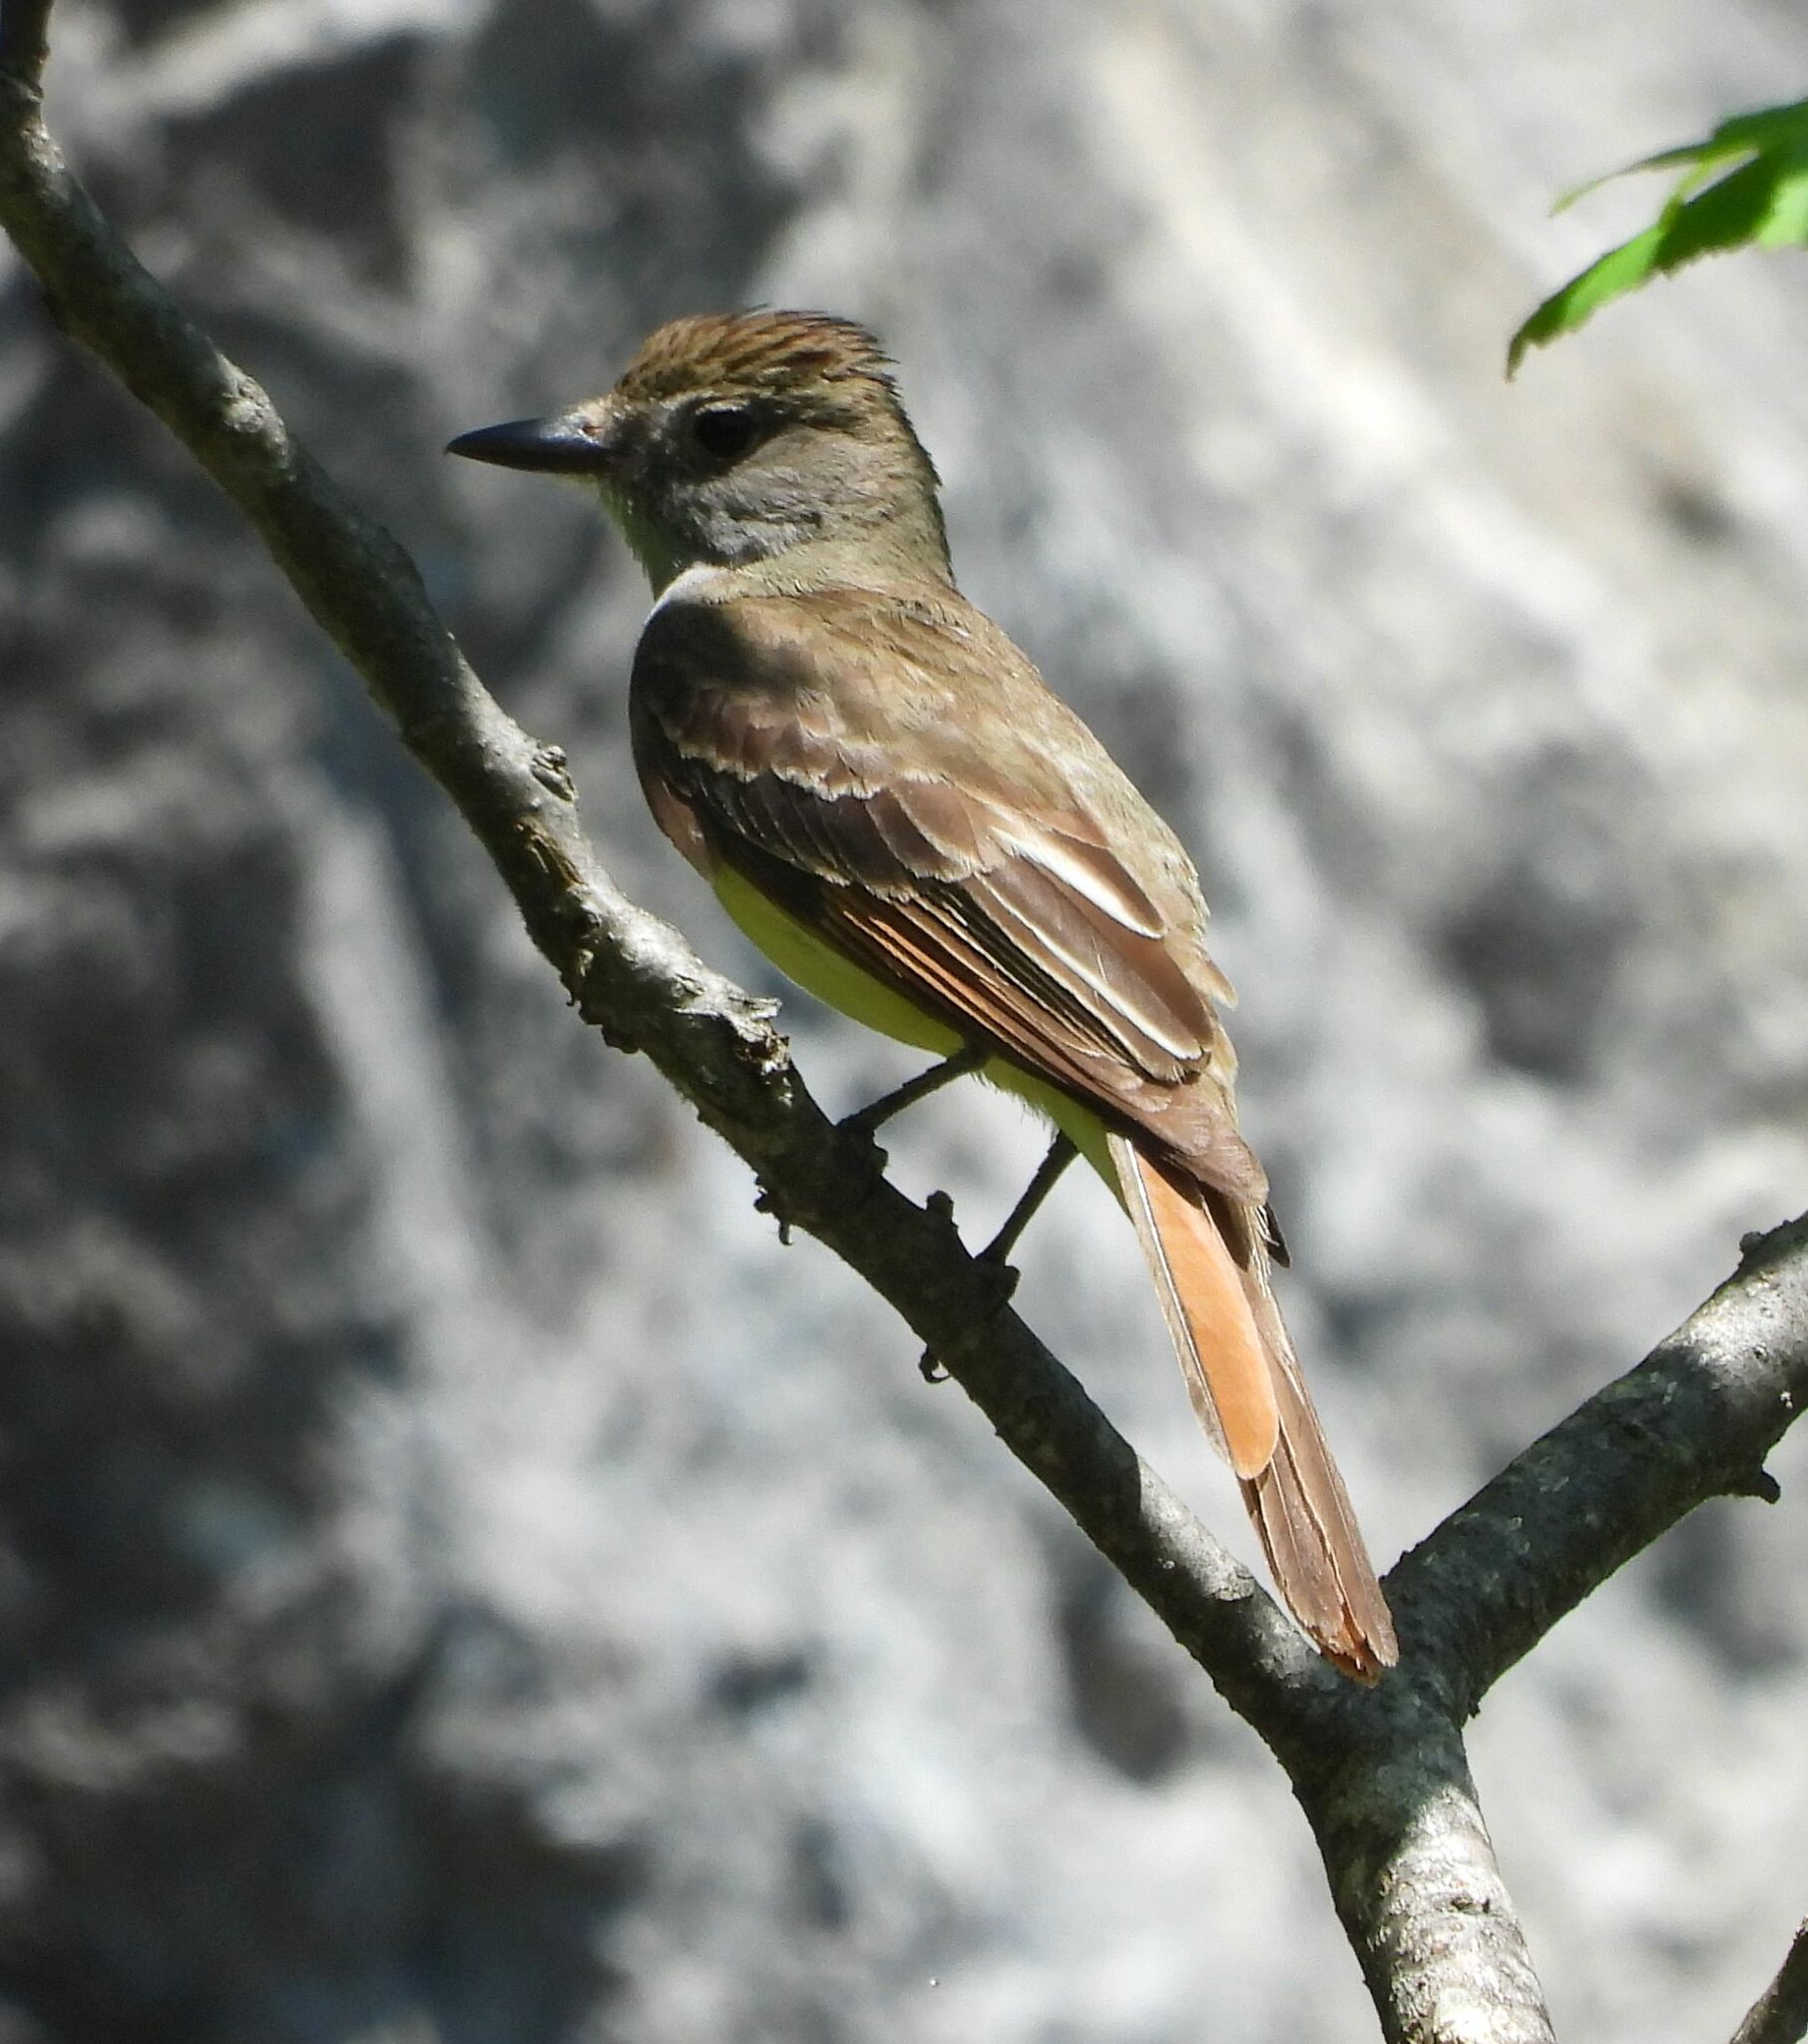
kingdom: Animalia
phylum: Chordata
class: Aves
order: Passeriformes
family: Tyrannidae
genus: Myiarchus
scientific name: Myiarchus crinitus
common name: Great crested flycatcher
